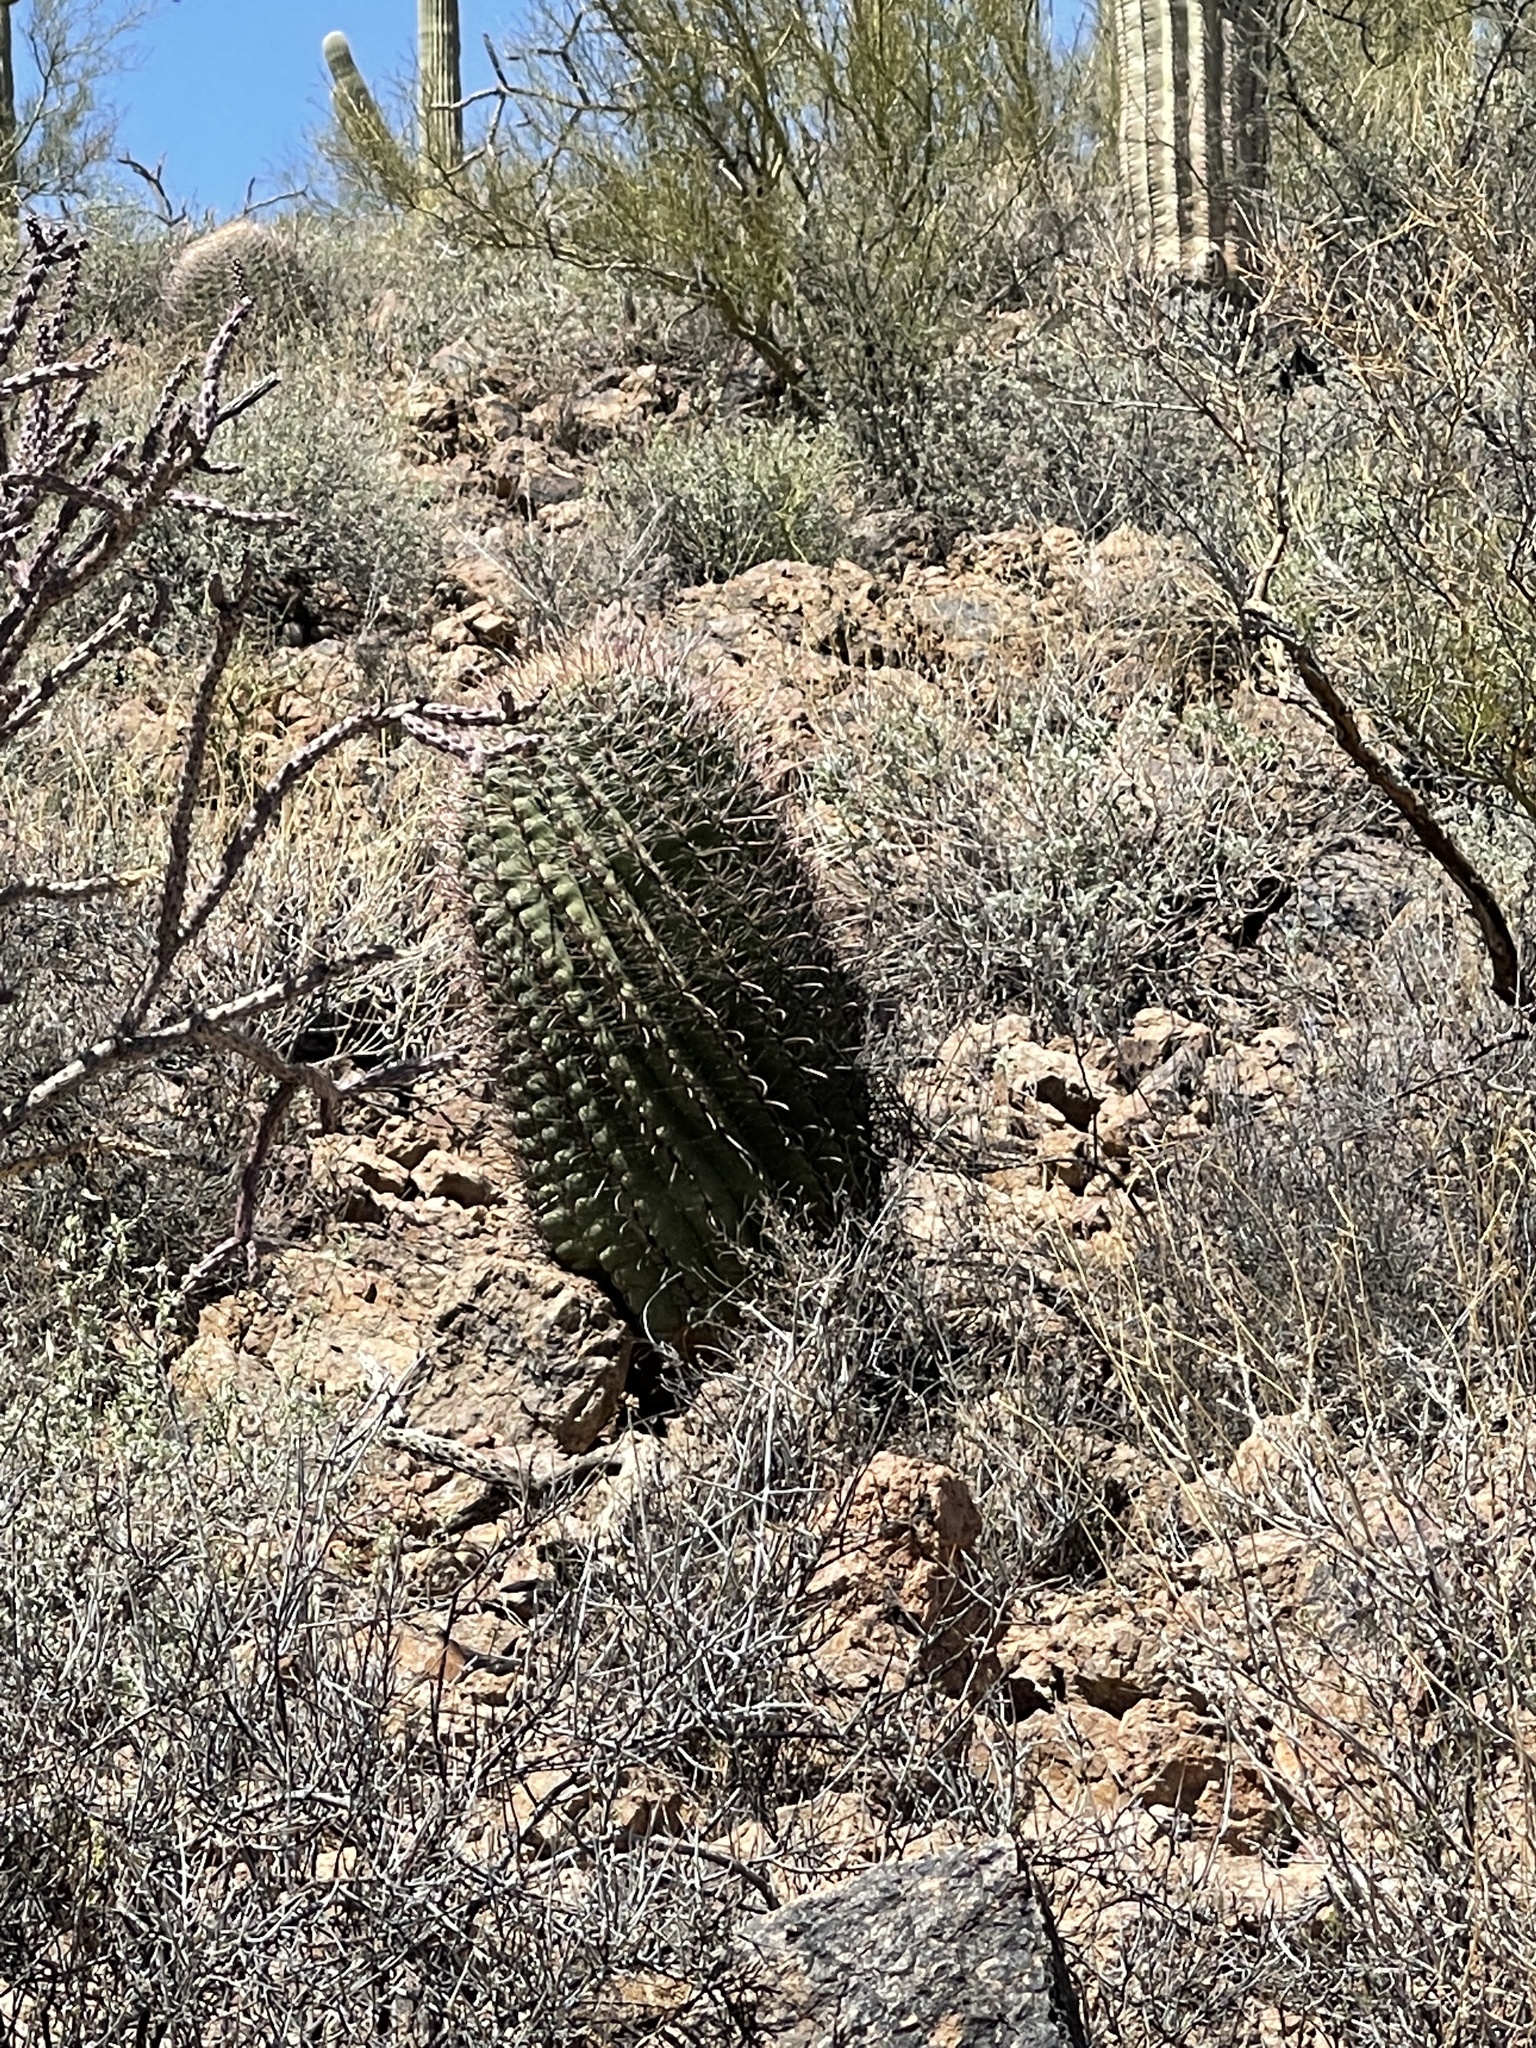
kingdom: Plantae
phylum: Tracheophyta
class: Magnoliopsida
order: Caryophyllales
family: Cactaceae
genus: Ferocactus
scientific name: Ferocactus wislizeni
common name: Candy barrel cactus
